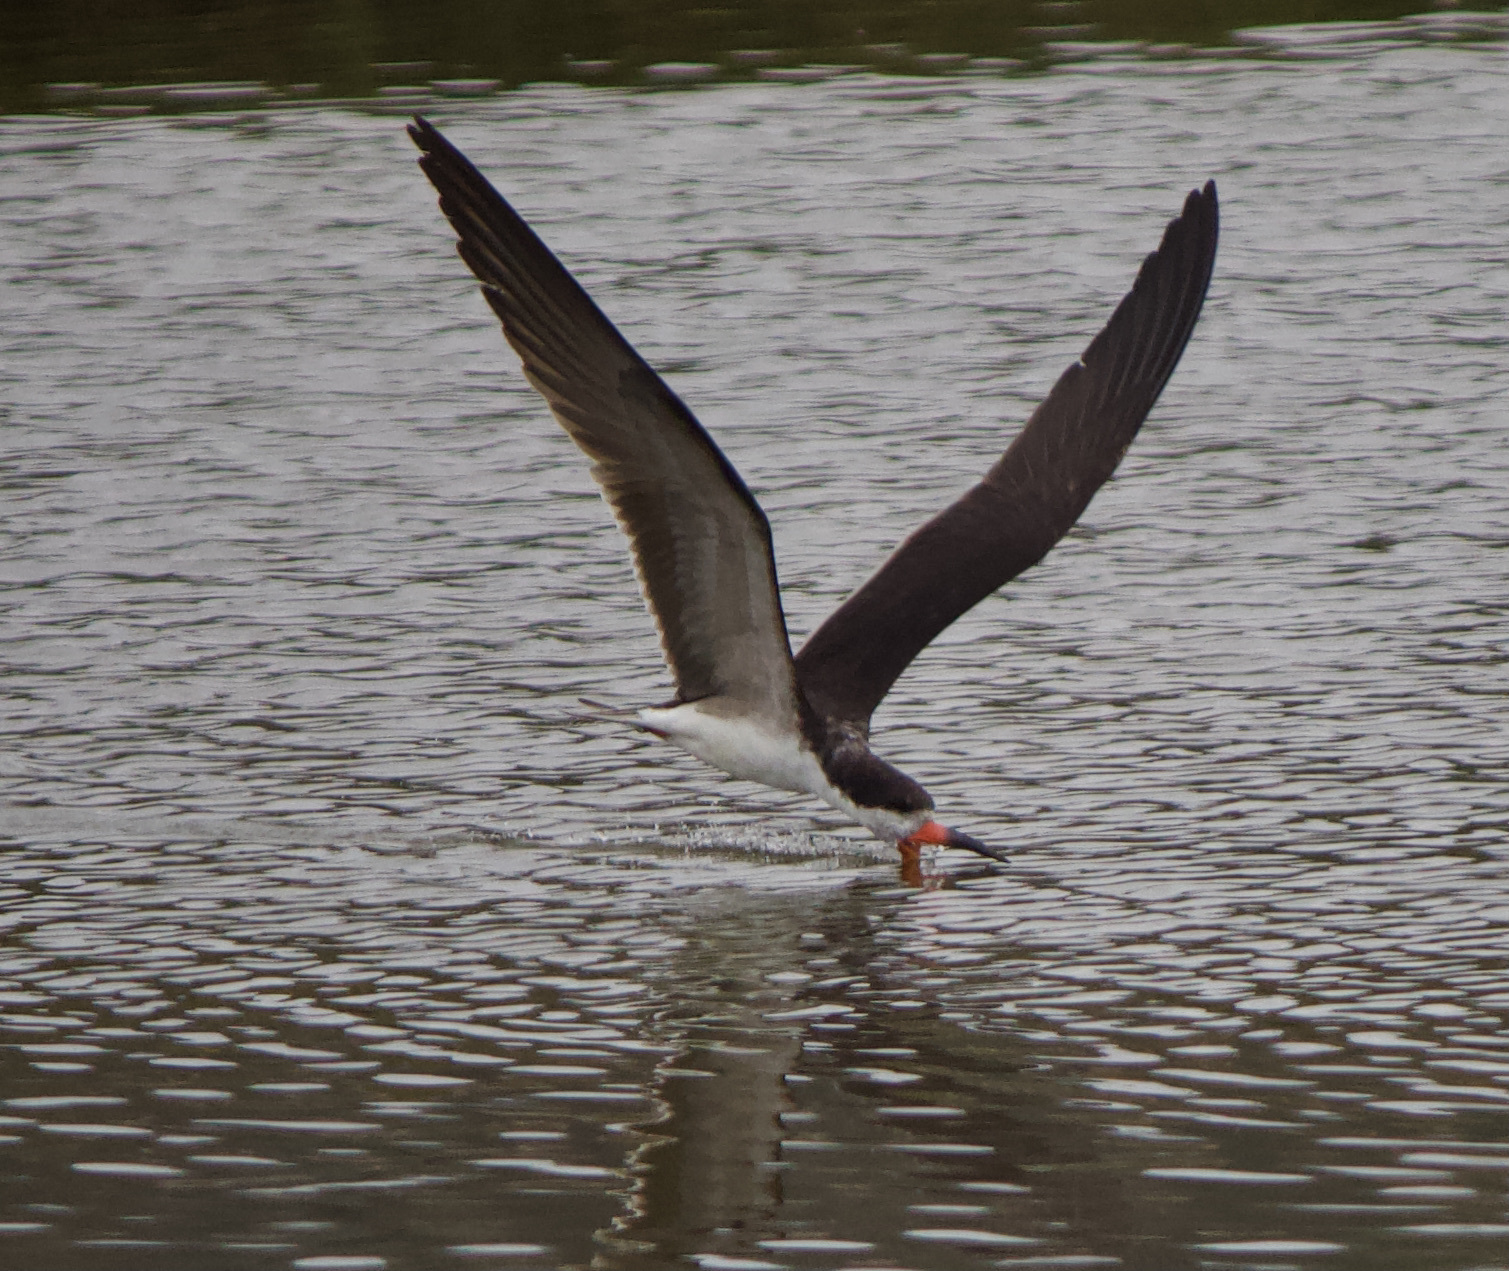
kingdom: Animalia
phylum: Chordata
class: Aves
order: Charadriiformes
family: Laridae
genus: Rynchops
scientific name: Rynchops niger
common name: Black skimmer
